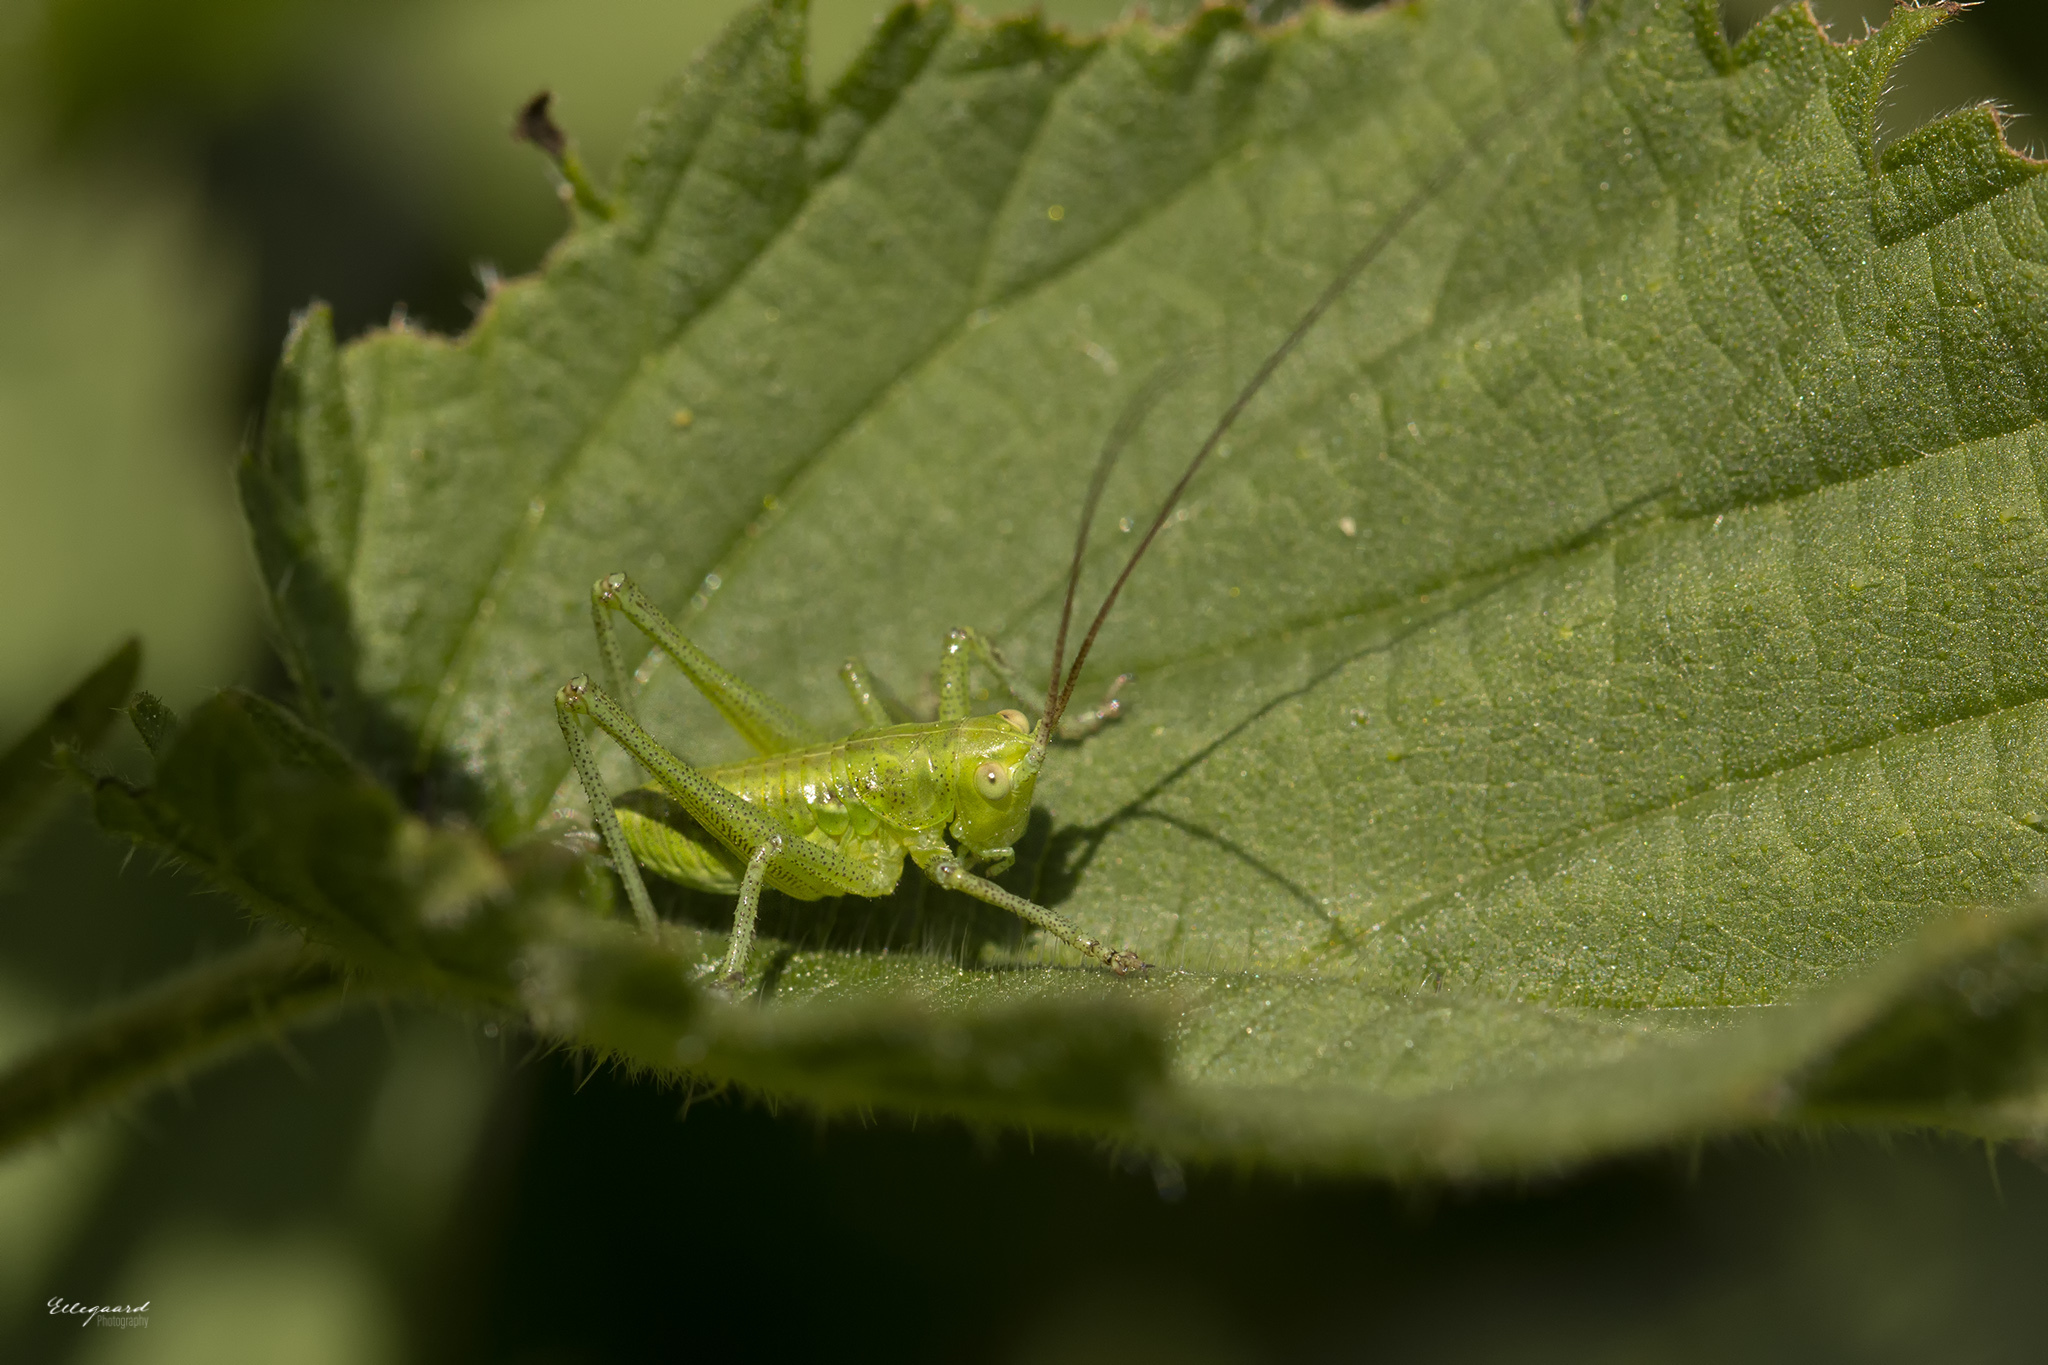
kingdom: Animalia
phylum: Arthropoda
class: Insecta
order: Orthoptera
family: Tettigoniidae
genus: Tettigonia
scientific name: Tettigonia viridissima
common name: Great green bush-cricket
